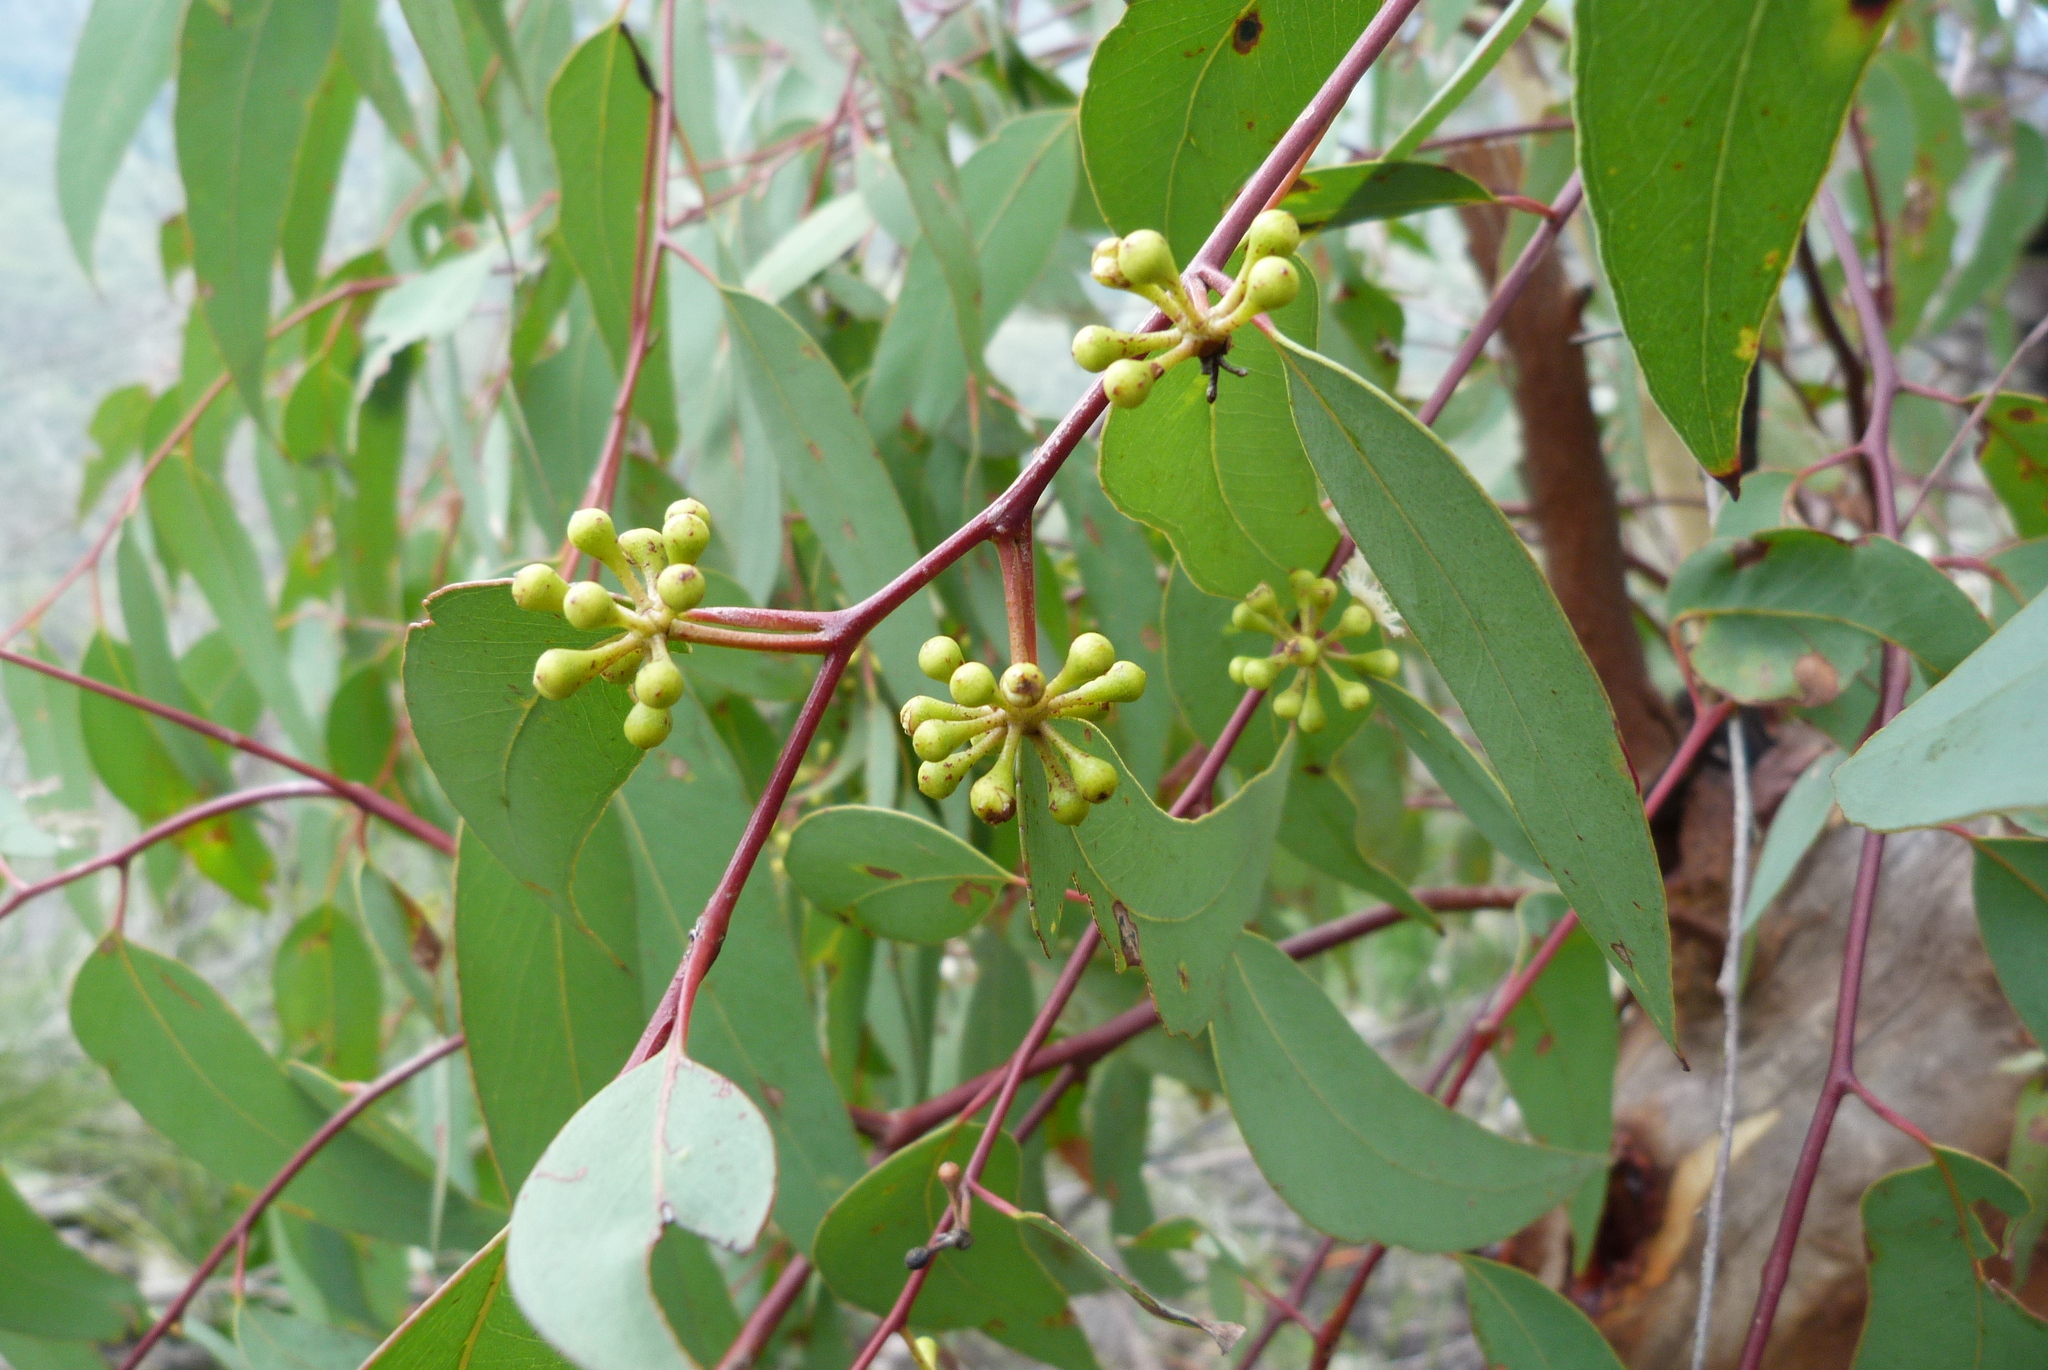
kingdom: Plantae
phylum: Tracheophyta
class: Magnoliopsida
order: Myrtales
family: Myrtaceae
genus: Eucalyptus
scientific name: Eucalyptus racemosa
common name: Scribbly gum
